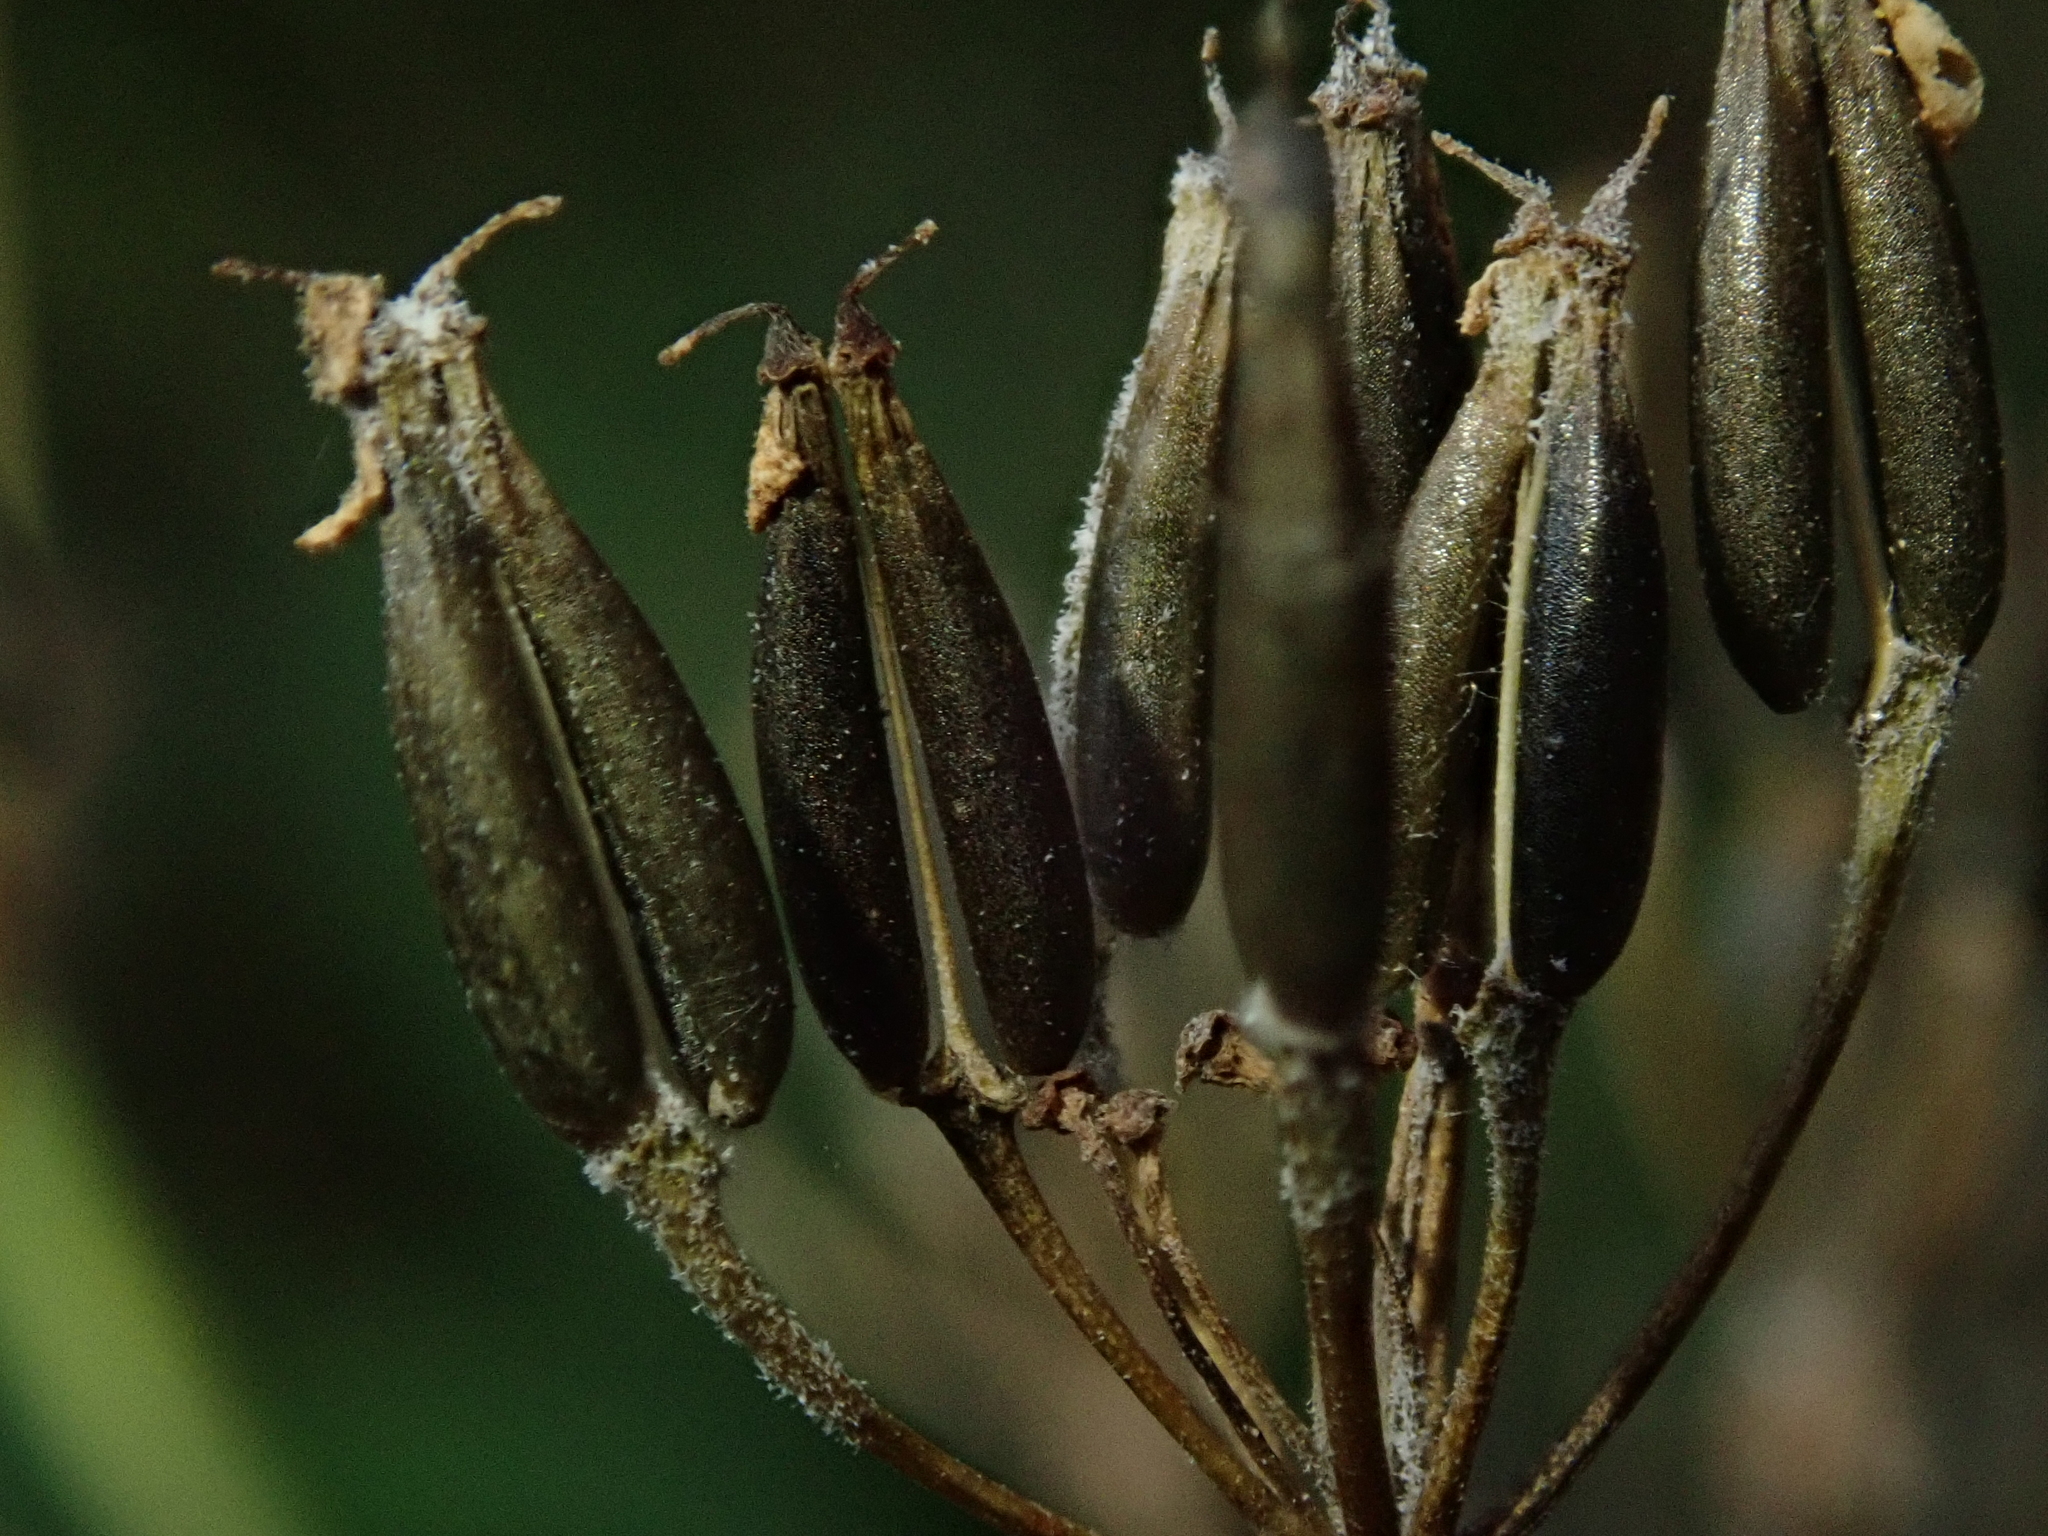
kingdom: Plantae
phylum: Tracheophyta
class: Magnoliopsida
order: Apiales
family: Apiaceae
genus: Anthriscus
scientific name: Anthriscus sylvestris
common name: Cow parsley
